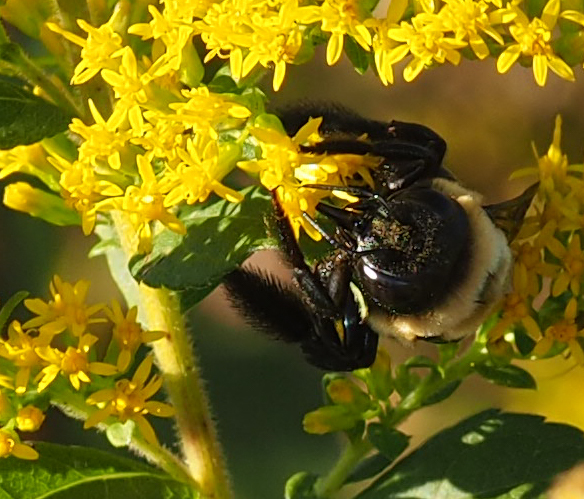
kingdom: Animalia
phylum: Arthropoda
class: Insecta
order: Hymenoptera
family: Apidae
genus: Xylocopa
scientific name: Xylocopa virginica
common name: Carpenter bee
